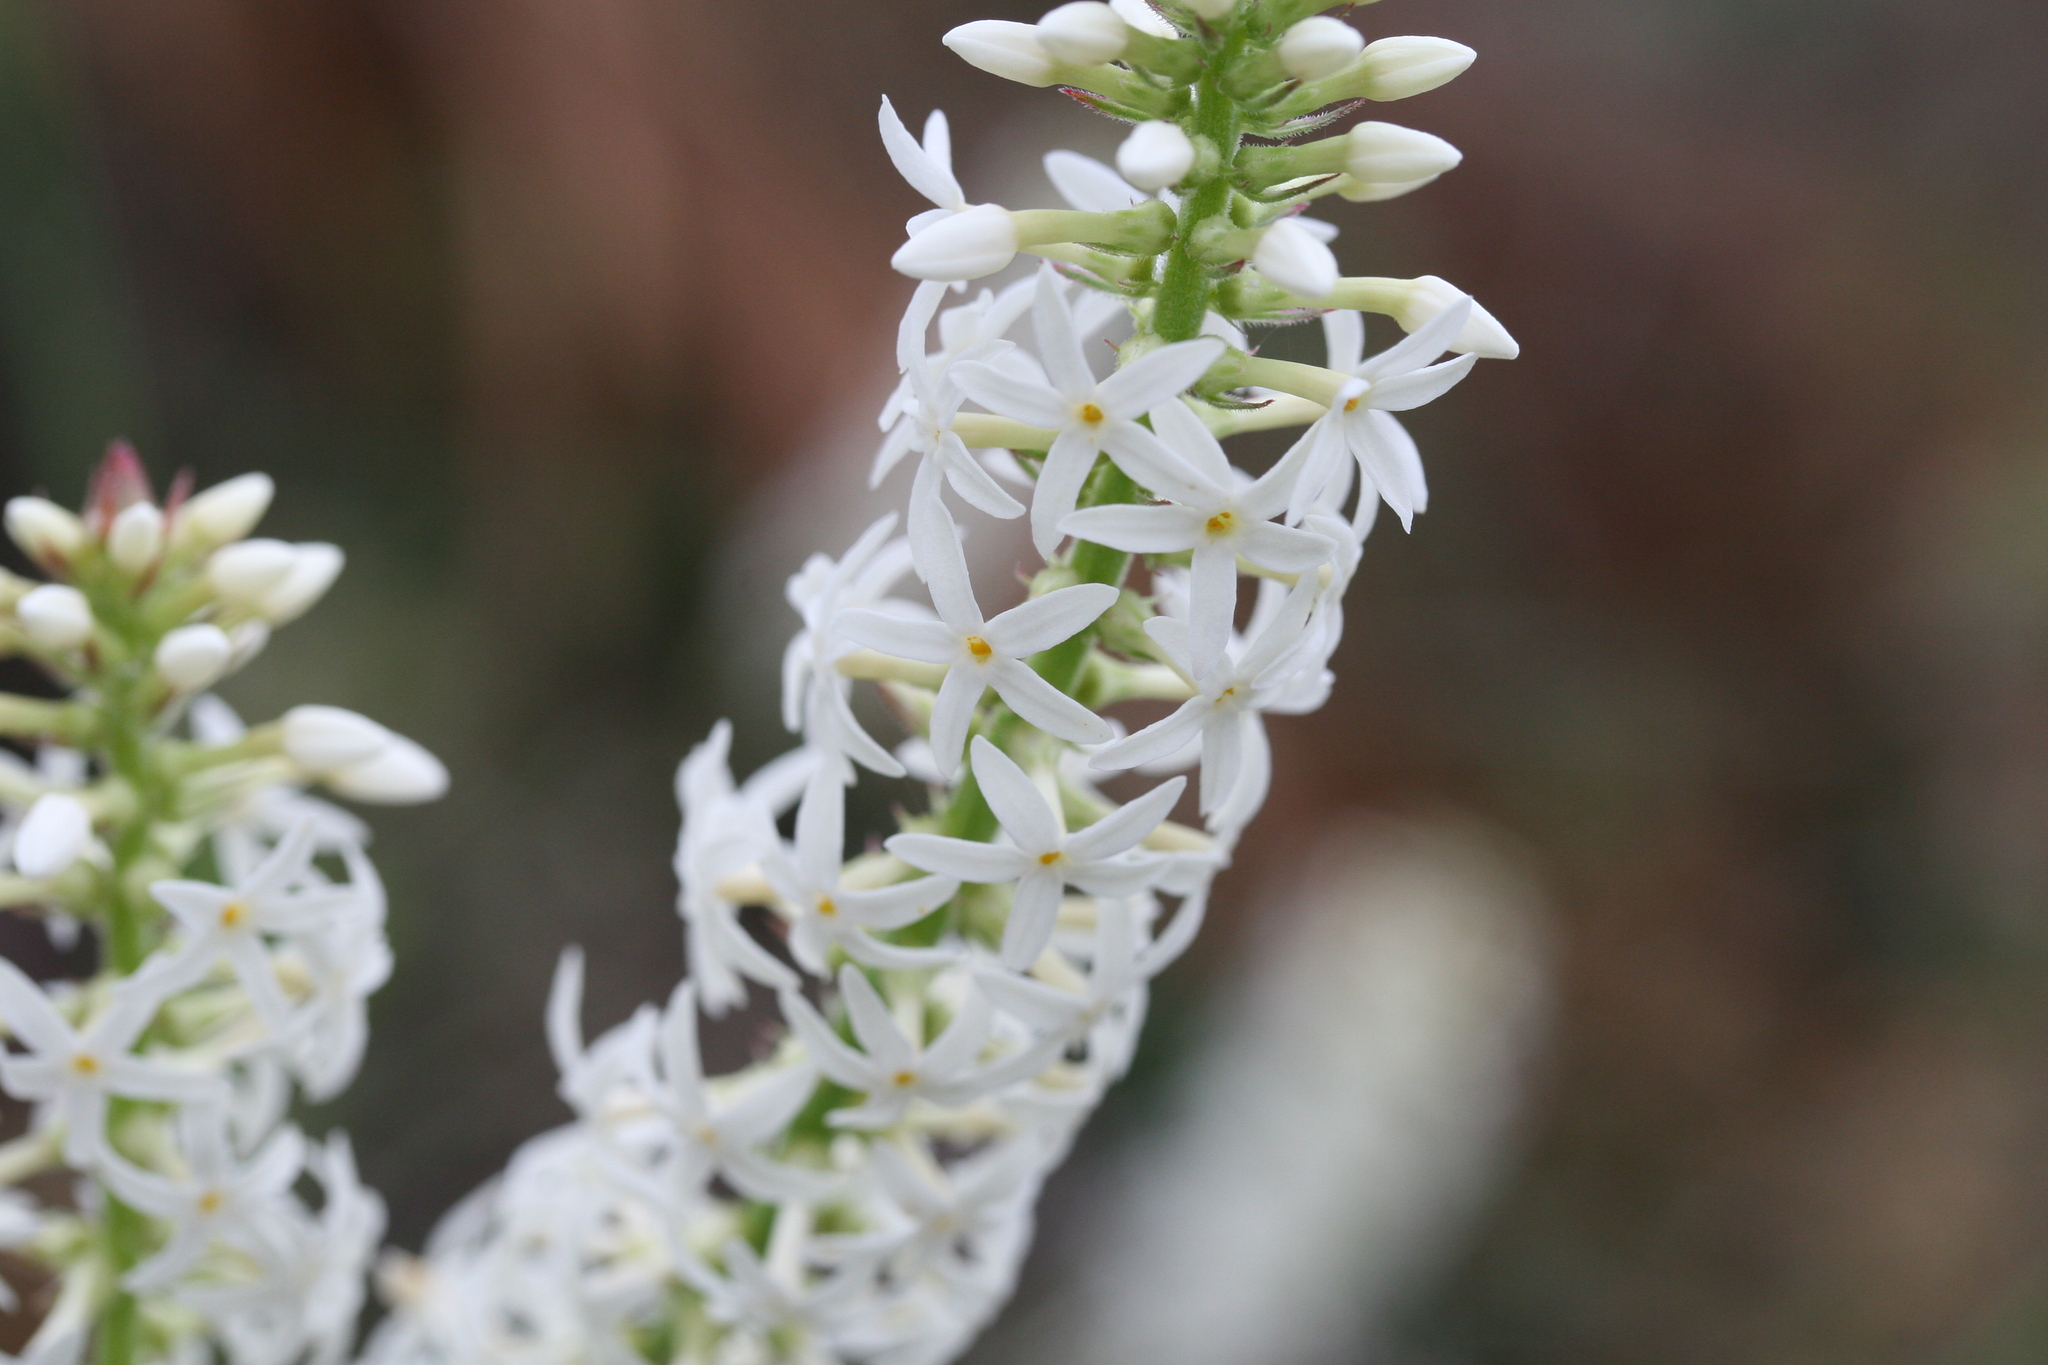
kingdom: Plantae
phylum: Tracheophyta
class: Magnoliopsida
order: Celastrales
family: Celastraceae
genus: Stackhousia
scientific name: Stackhousia monogyna
